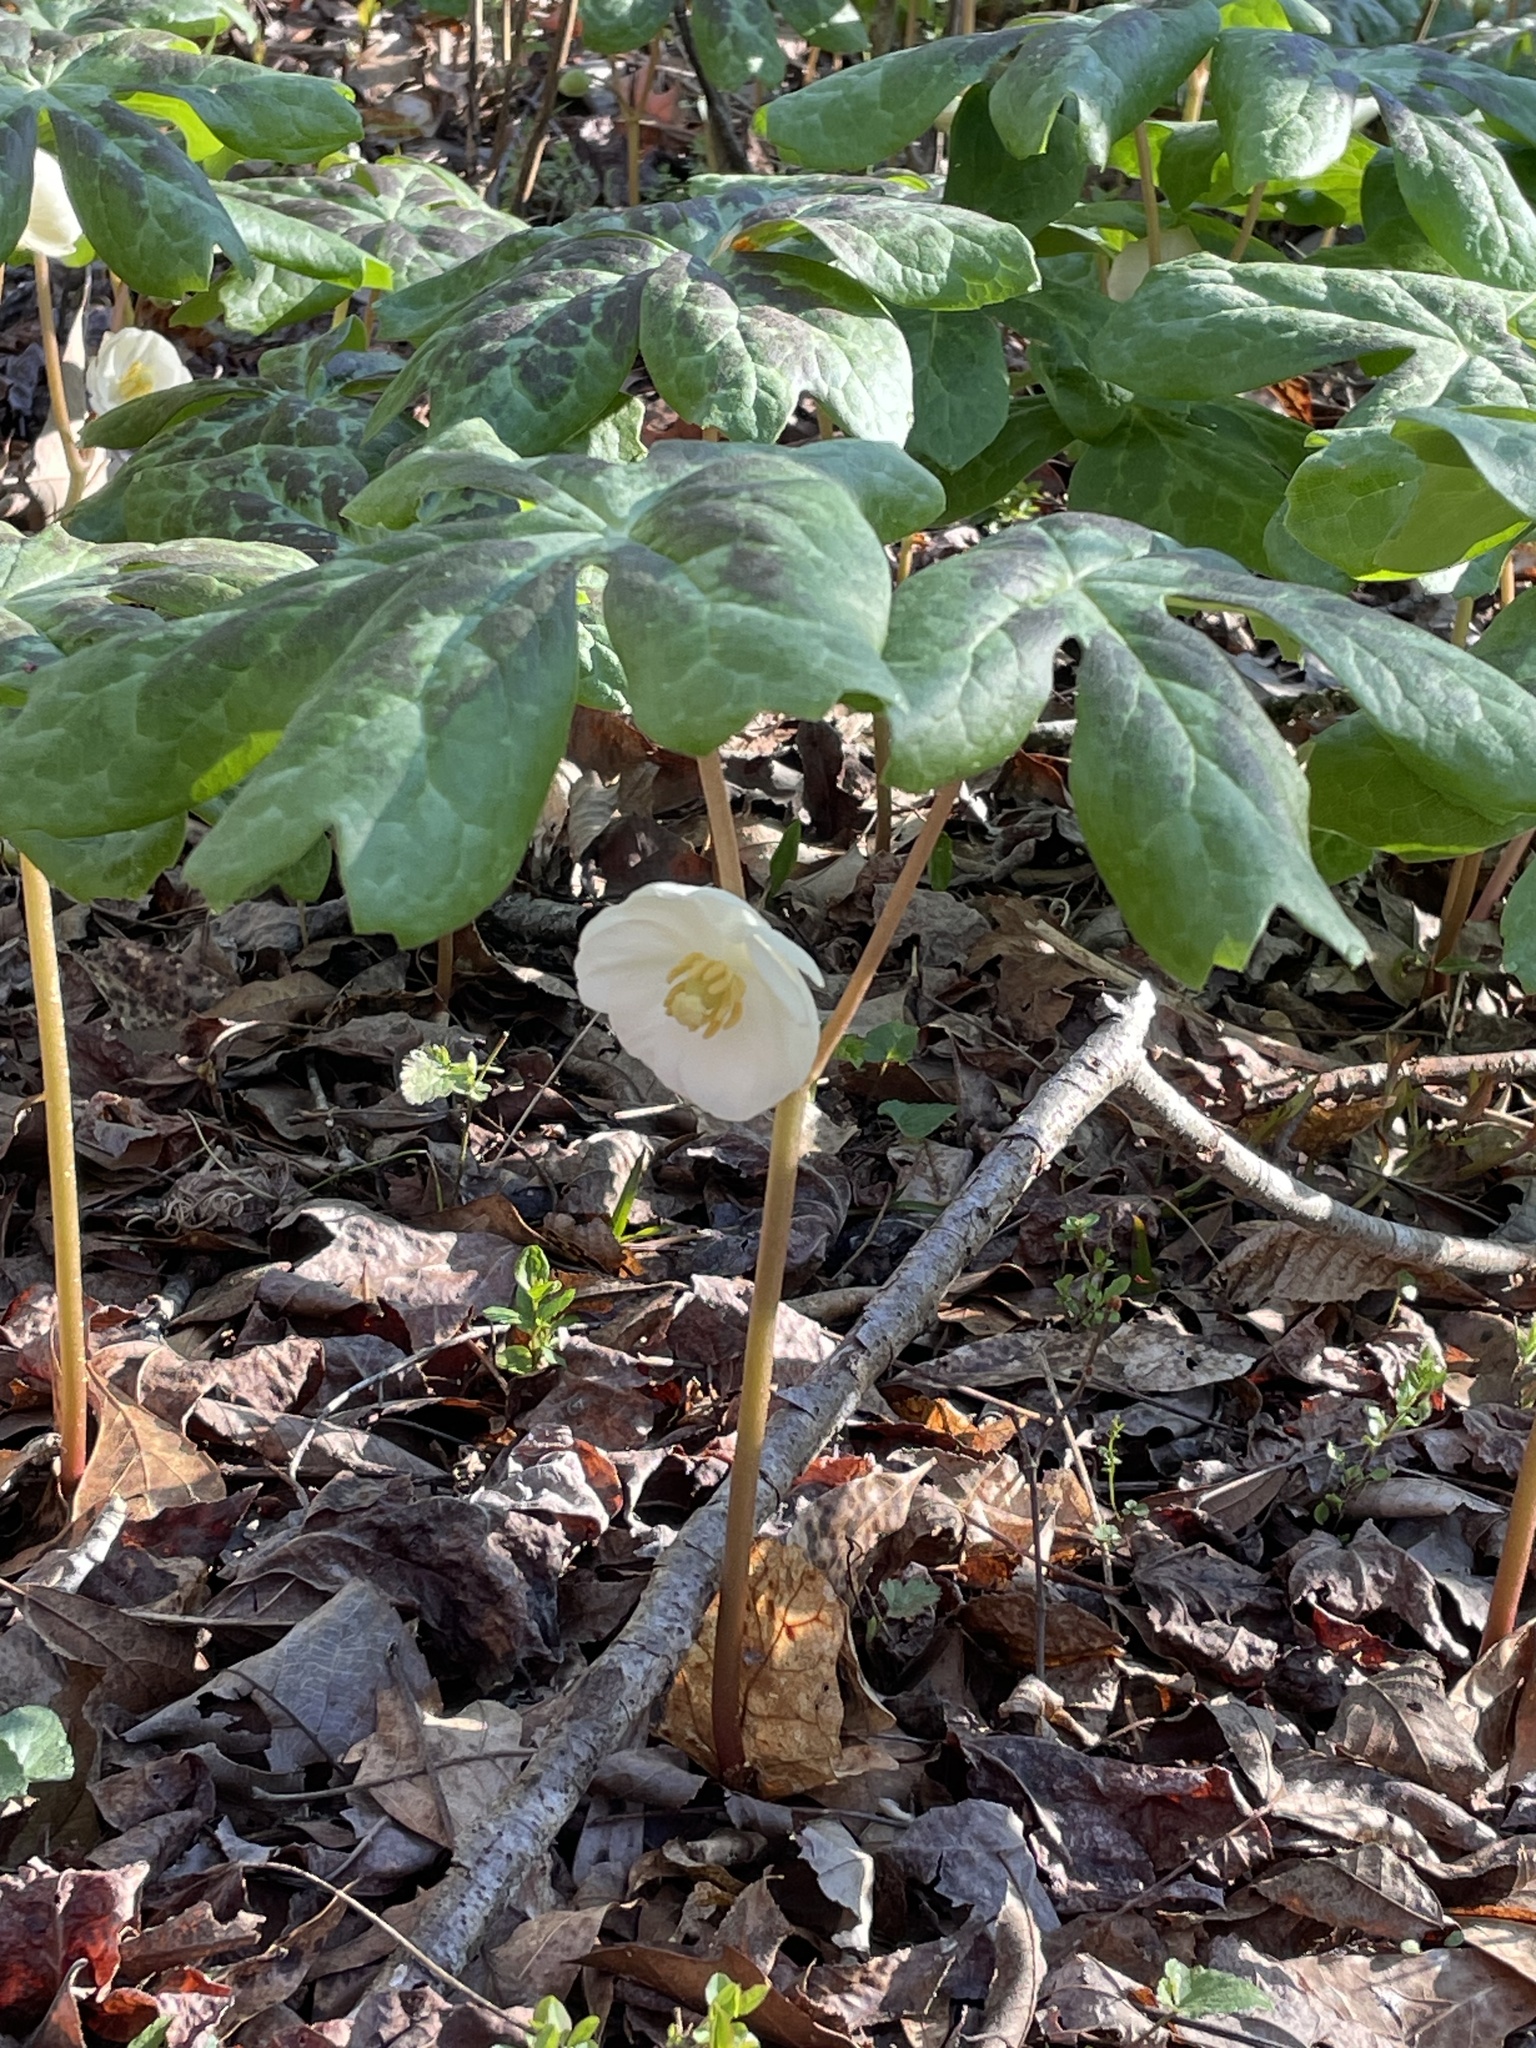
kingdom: Plantae
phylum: Tracheophyta
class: Magnoliopsida
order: Ranunculales
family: Berberidaceae
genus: Podophyllum
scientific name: Podophyllum peltatum
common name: Wild mandrake
